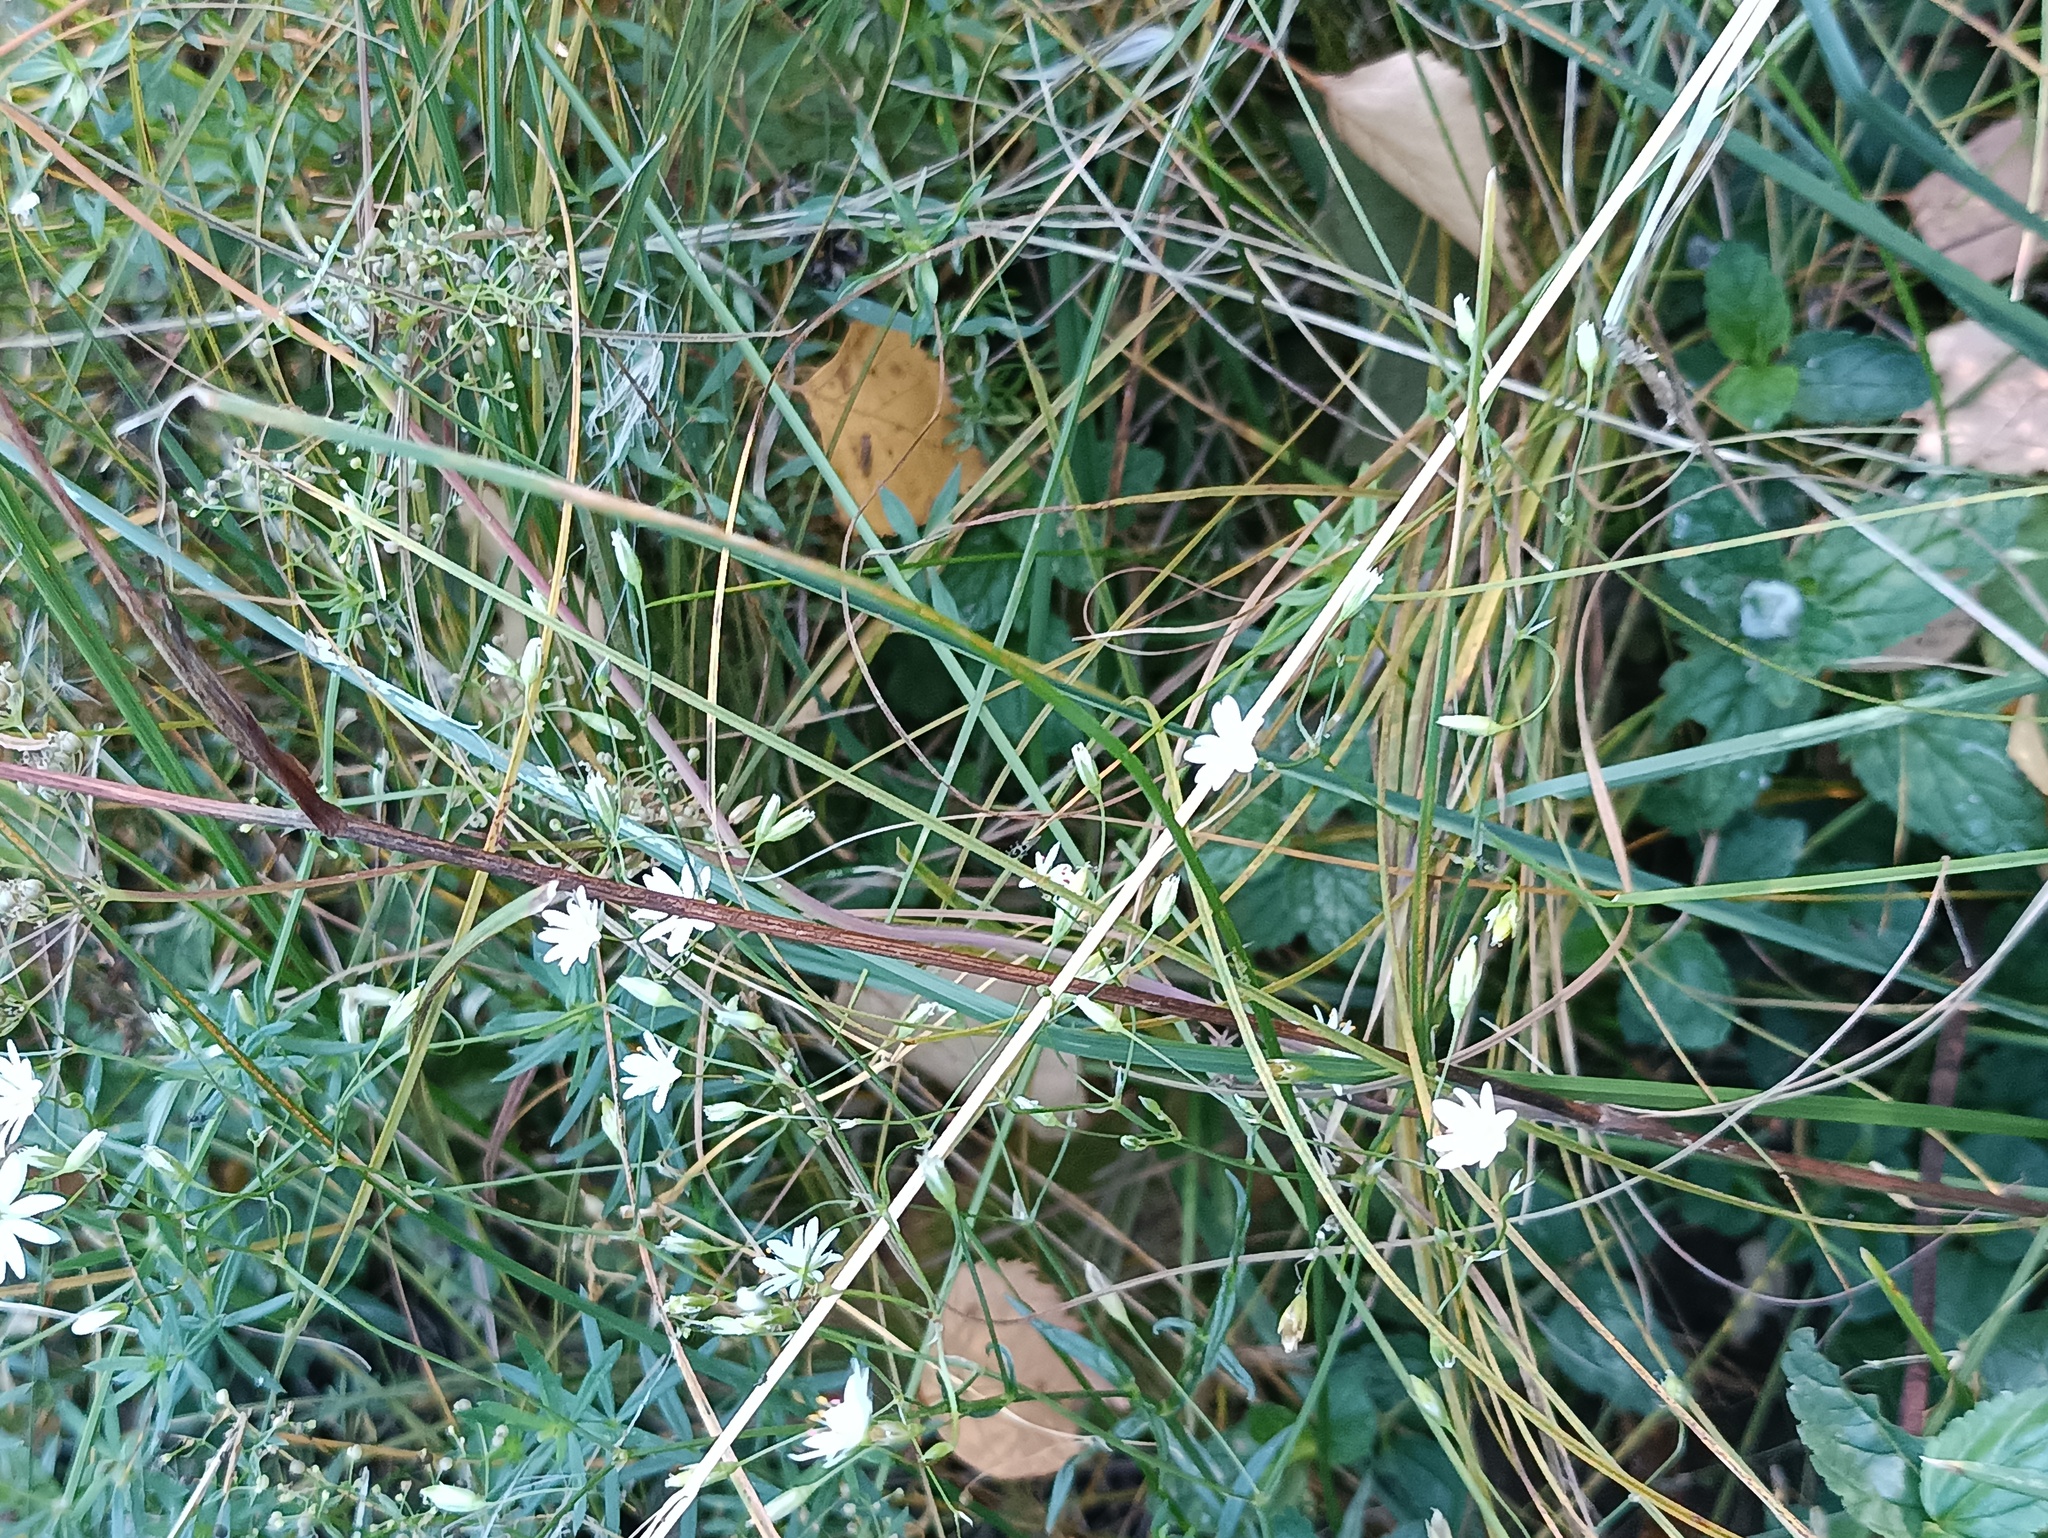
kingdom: Plantae
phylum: Tracheophyta
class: Magnoliopsida
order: Caryophyllales
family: Caryophyllaceae
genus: Stellaria
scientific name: Stellaria graminea
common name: Grass-like starwort
